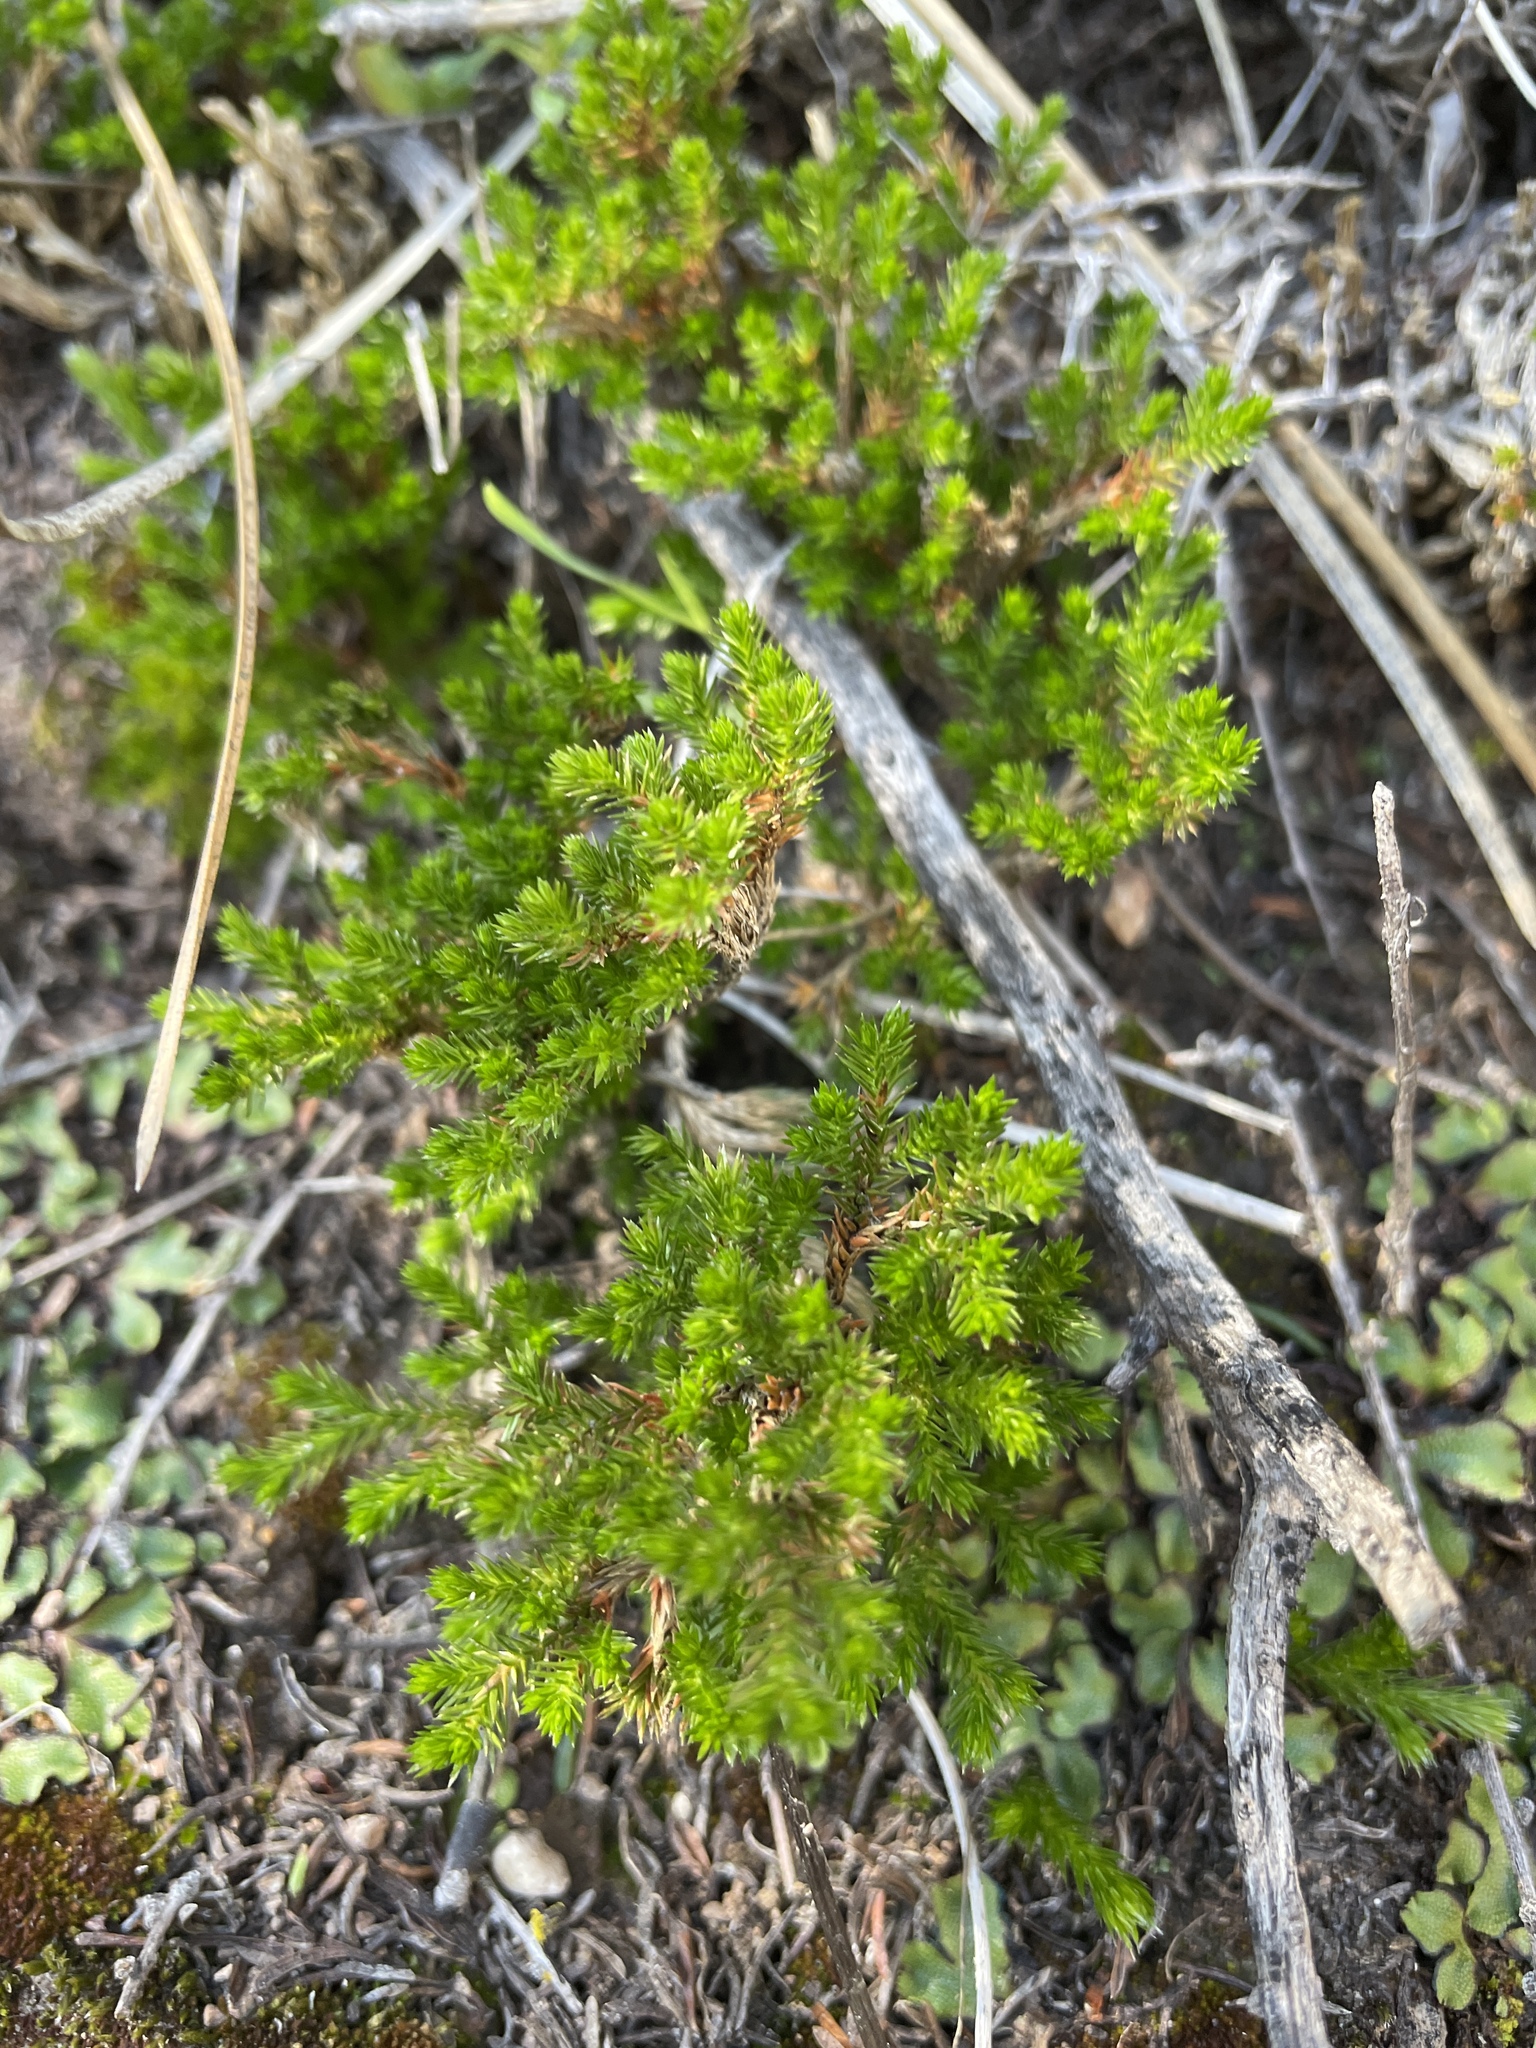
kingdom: Plantae
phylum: Tracheophyta
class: Lycopodiopsida
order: Selaginellales
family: Selaginellaceae
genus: Selaginella
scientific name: Selaginella bigelovii
